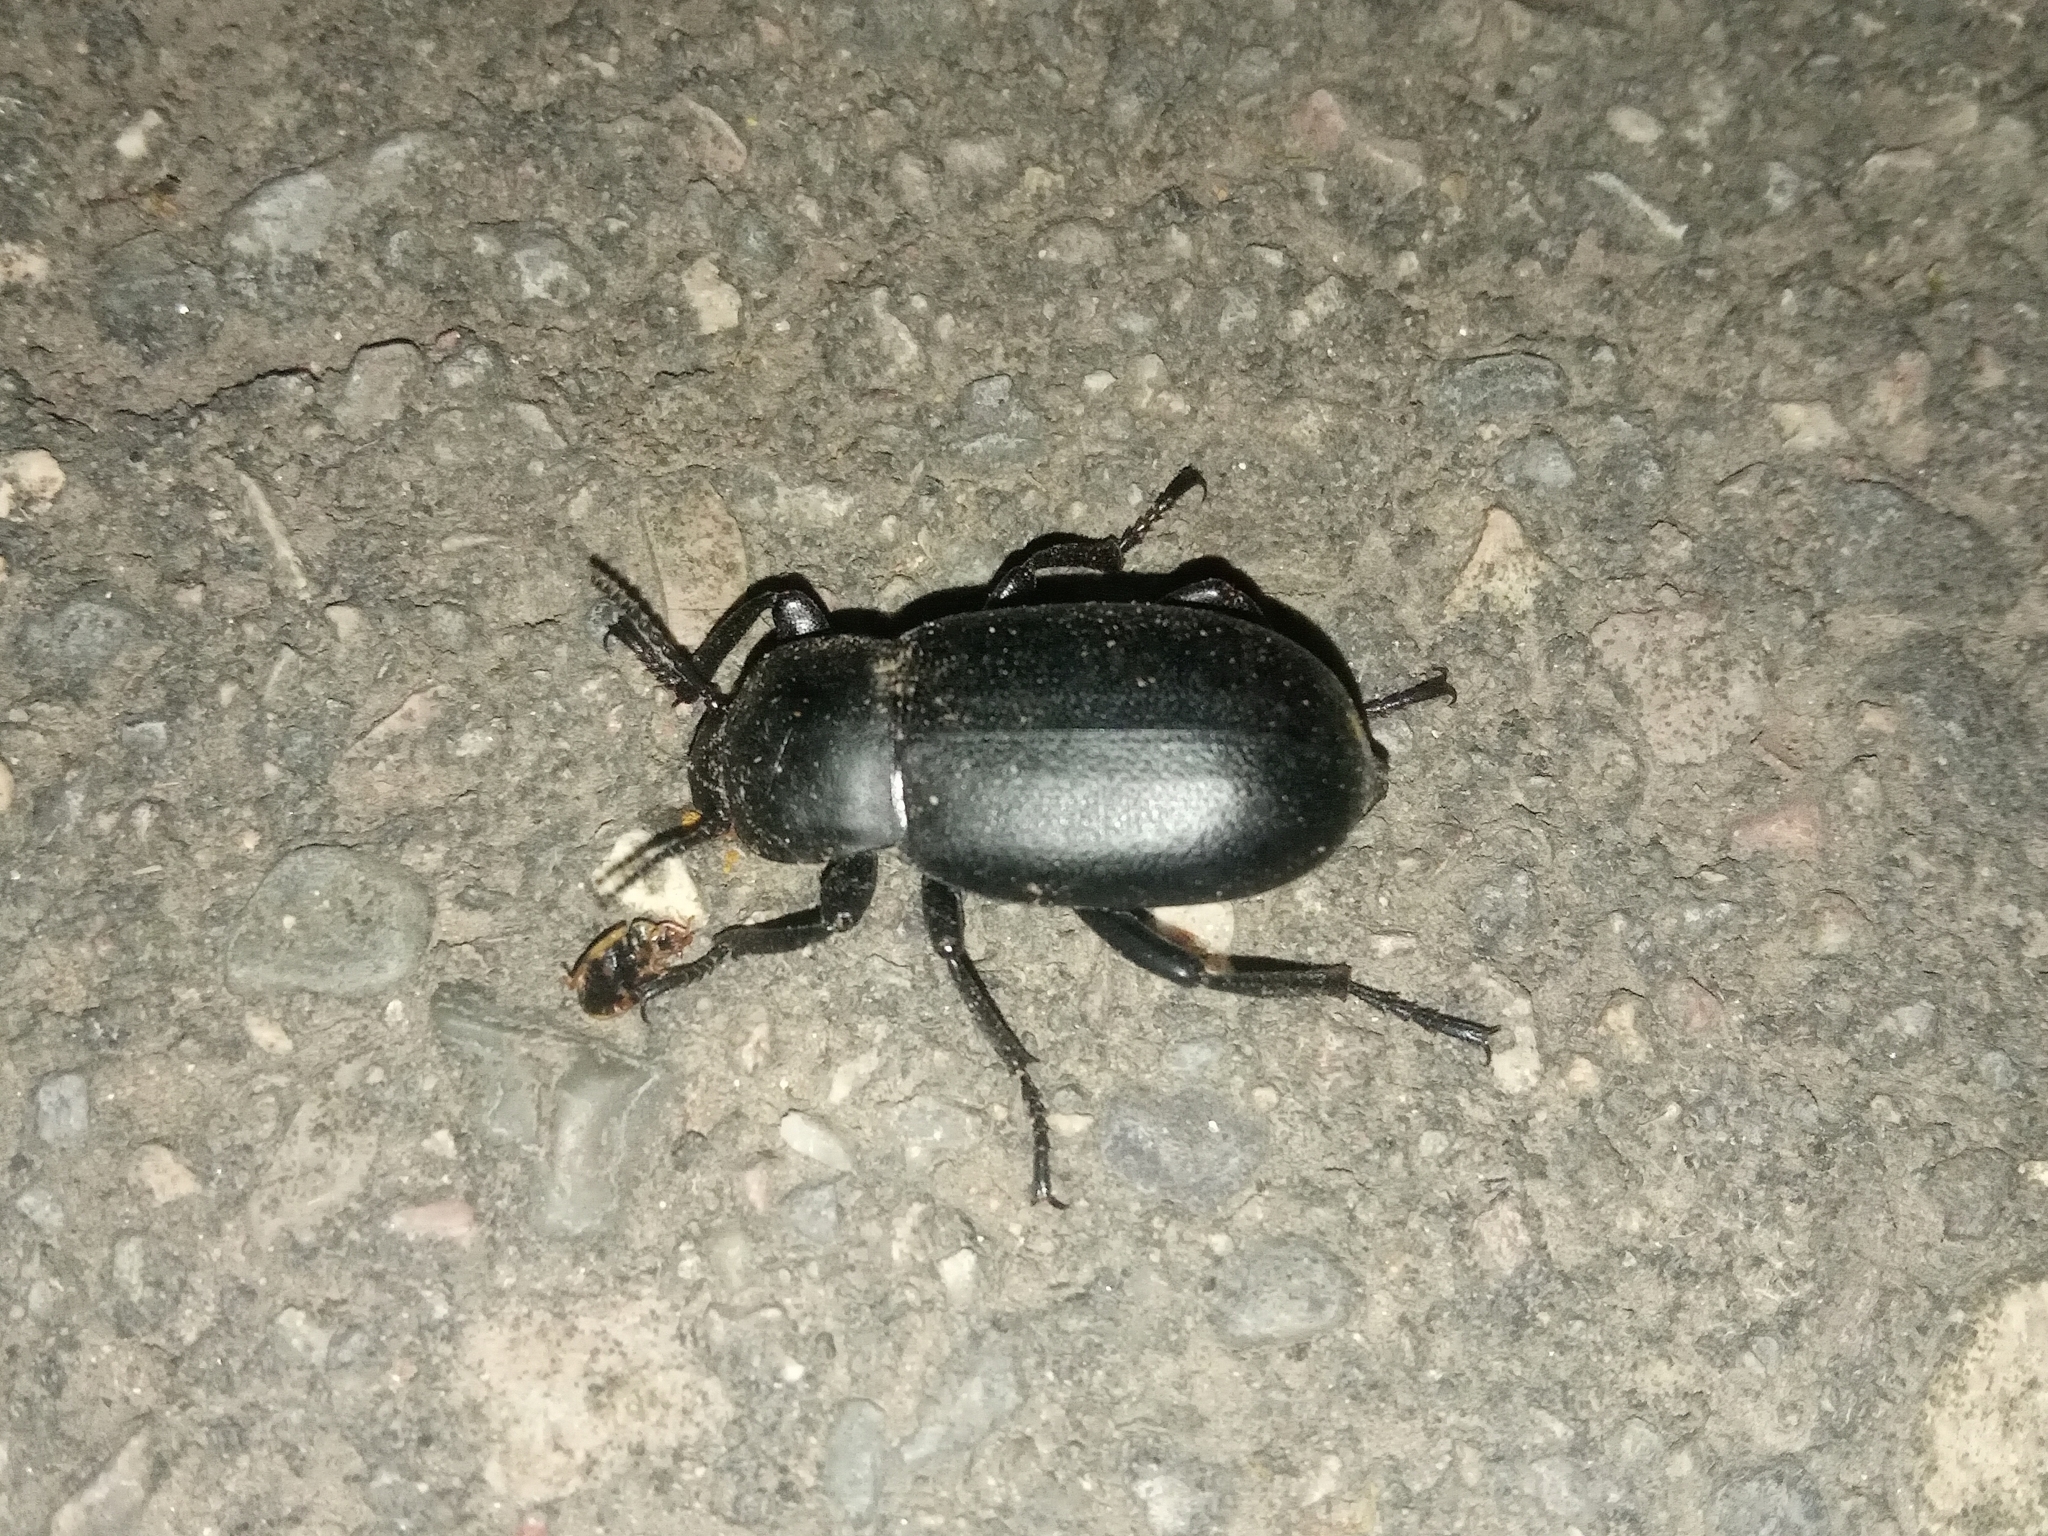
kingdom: Animalia
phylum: Arthropoda
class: Insecta
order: Coleoptera
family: Tenebrionidae
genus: Blaps
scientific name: Blaps
